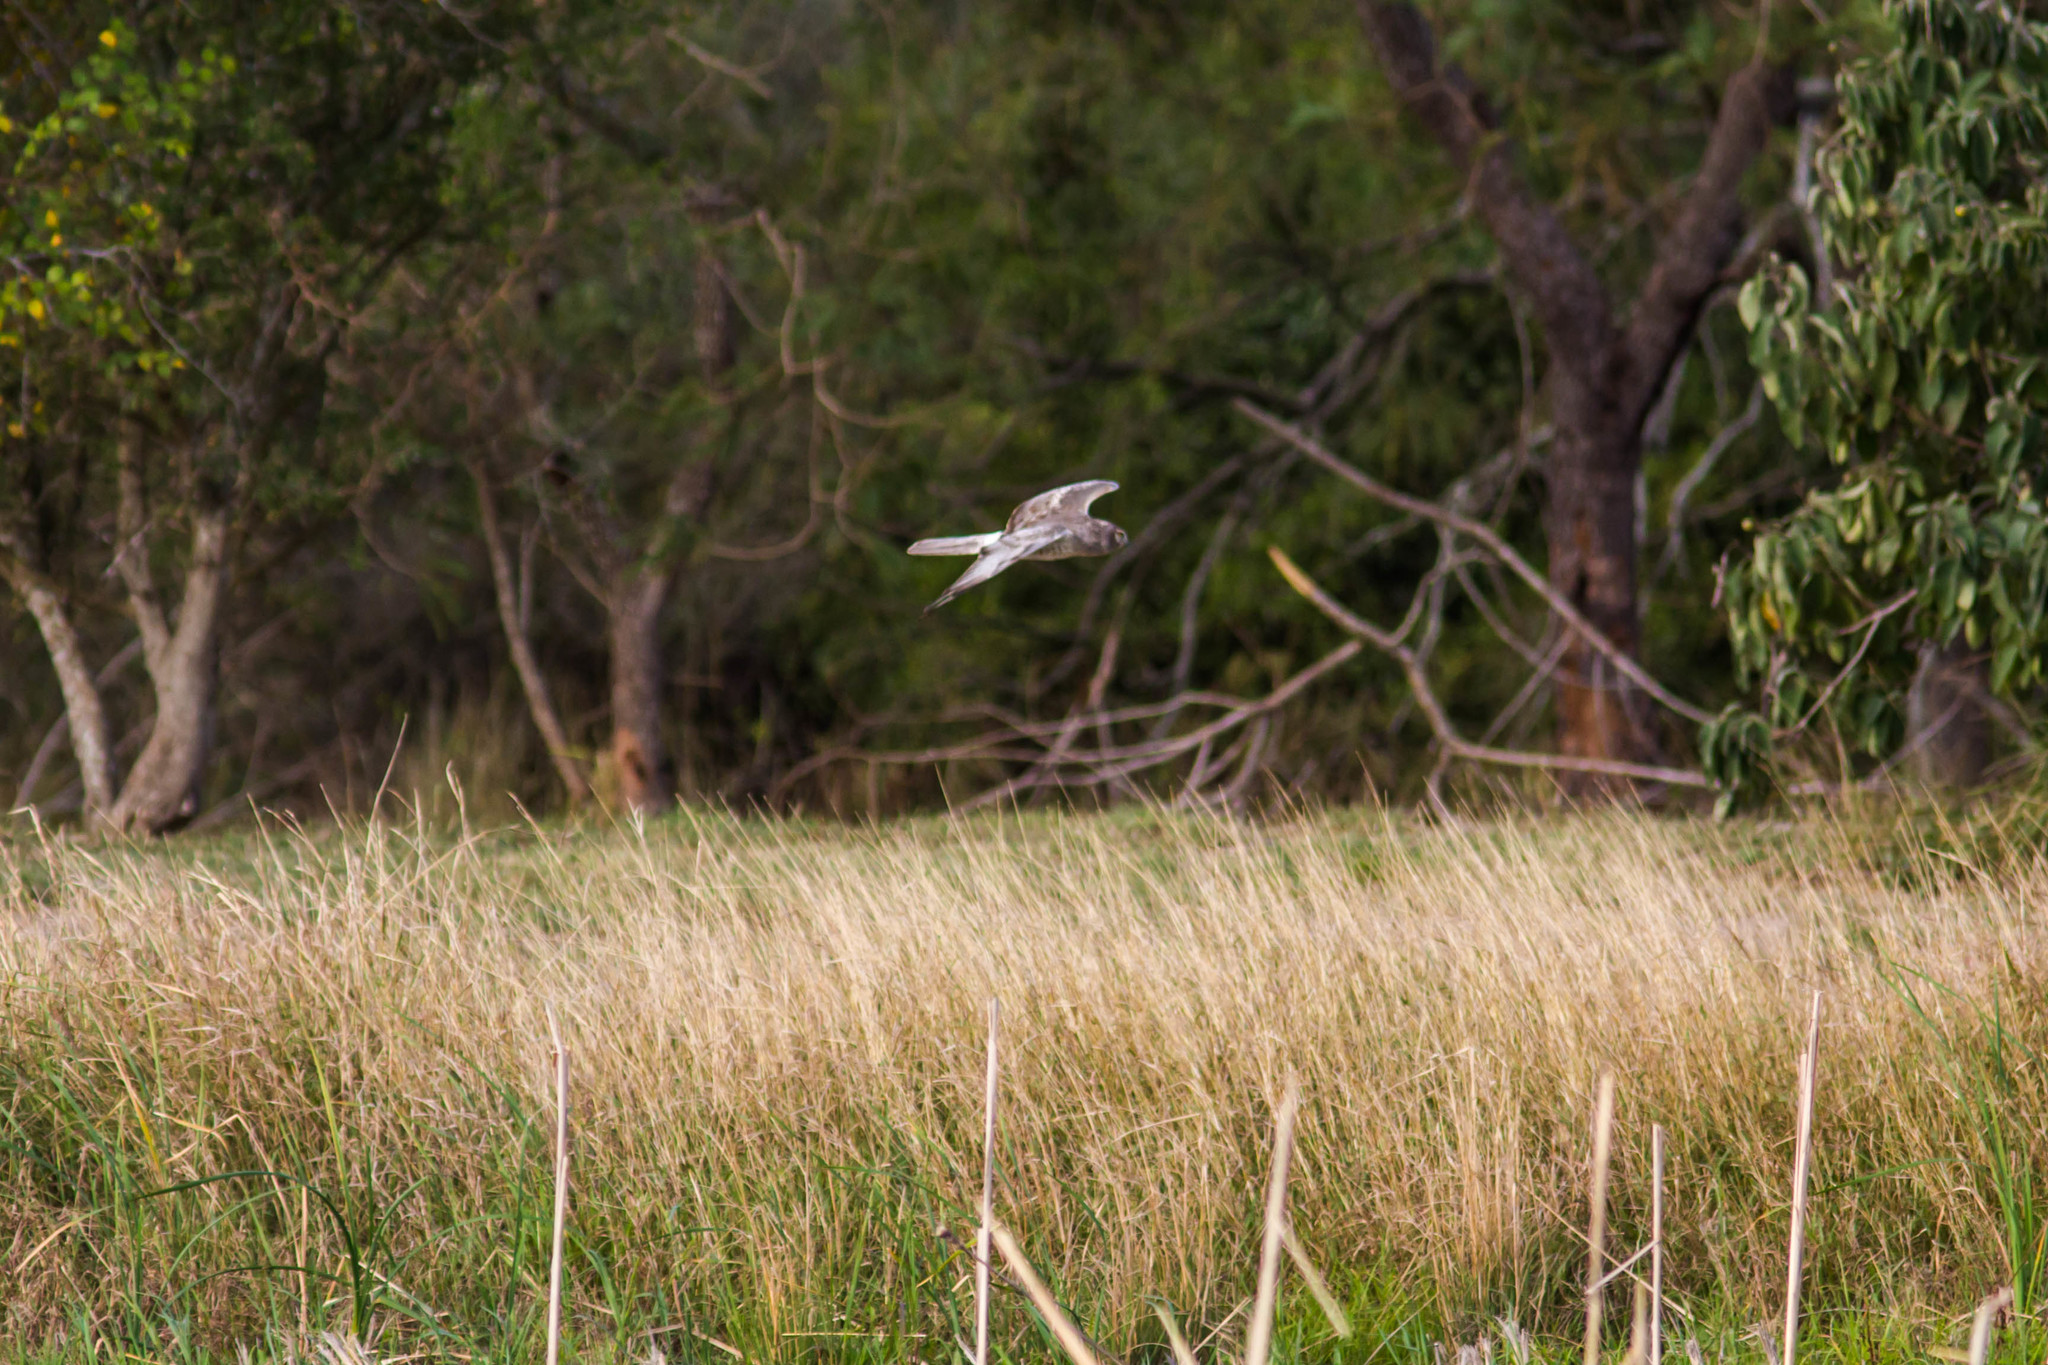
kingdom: Animalia
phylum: Chordata
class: Aves
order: Accipitriformes
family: Accipitridae
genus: Circus
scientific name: Circus cyaneus
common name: Hen harrier
